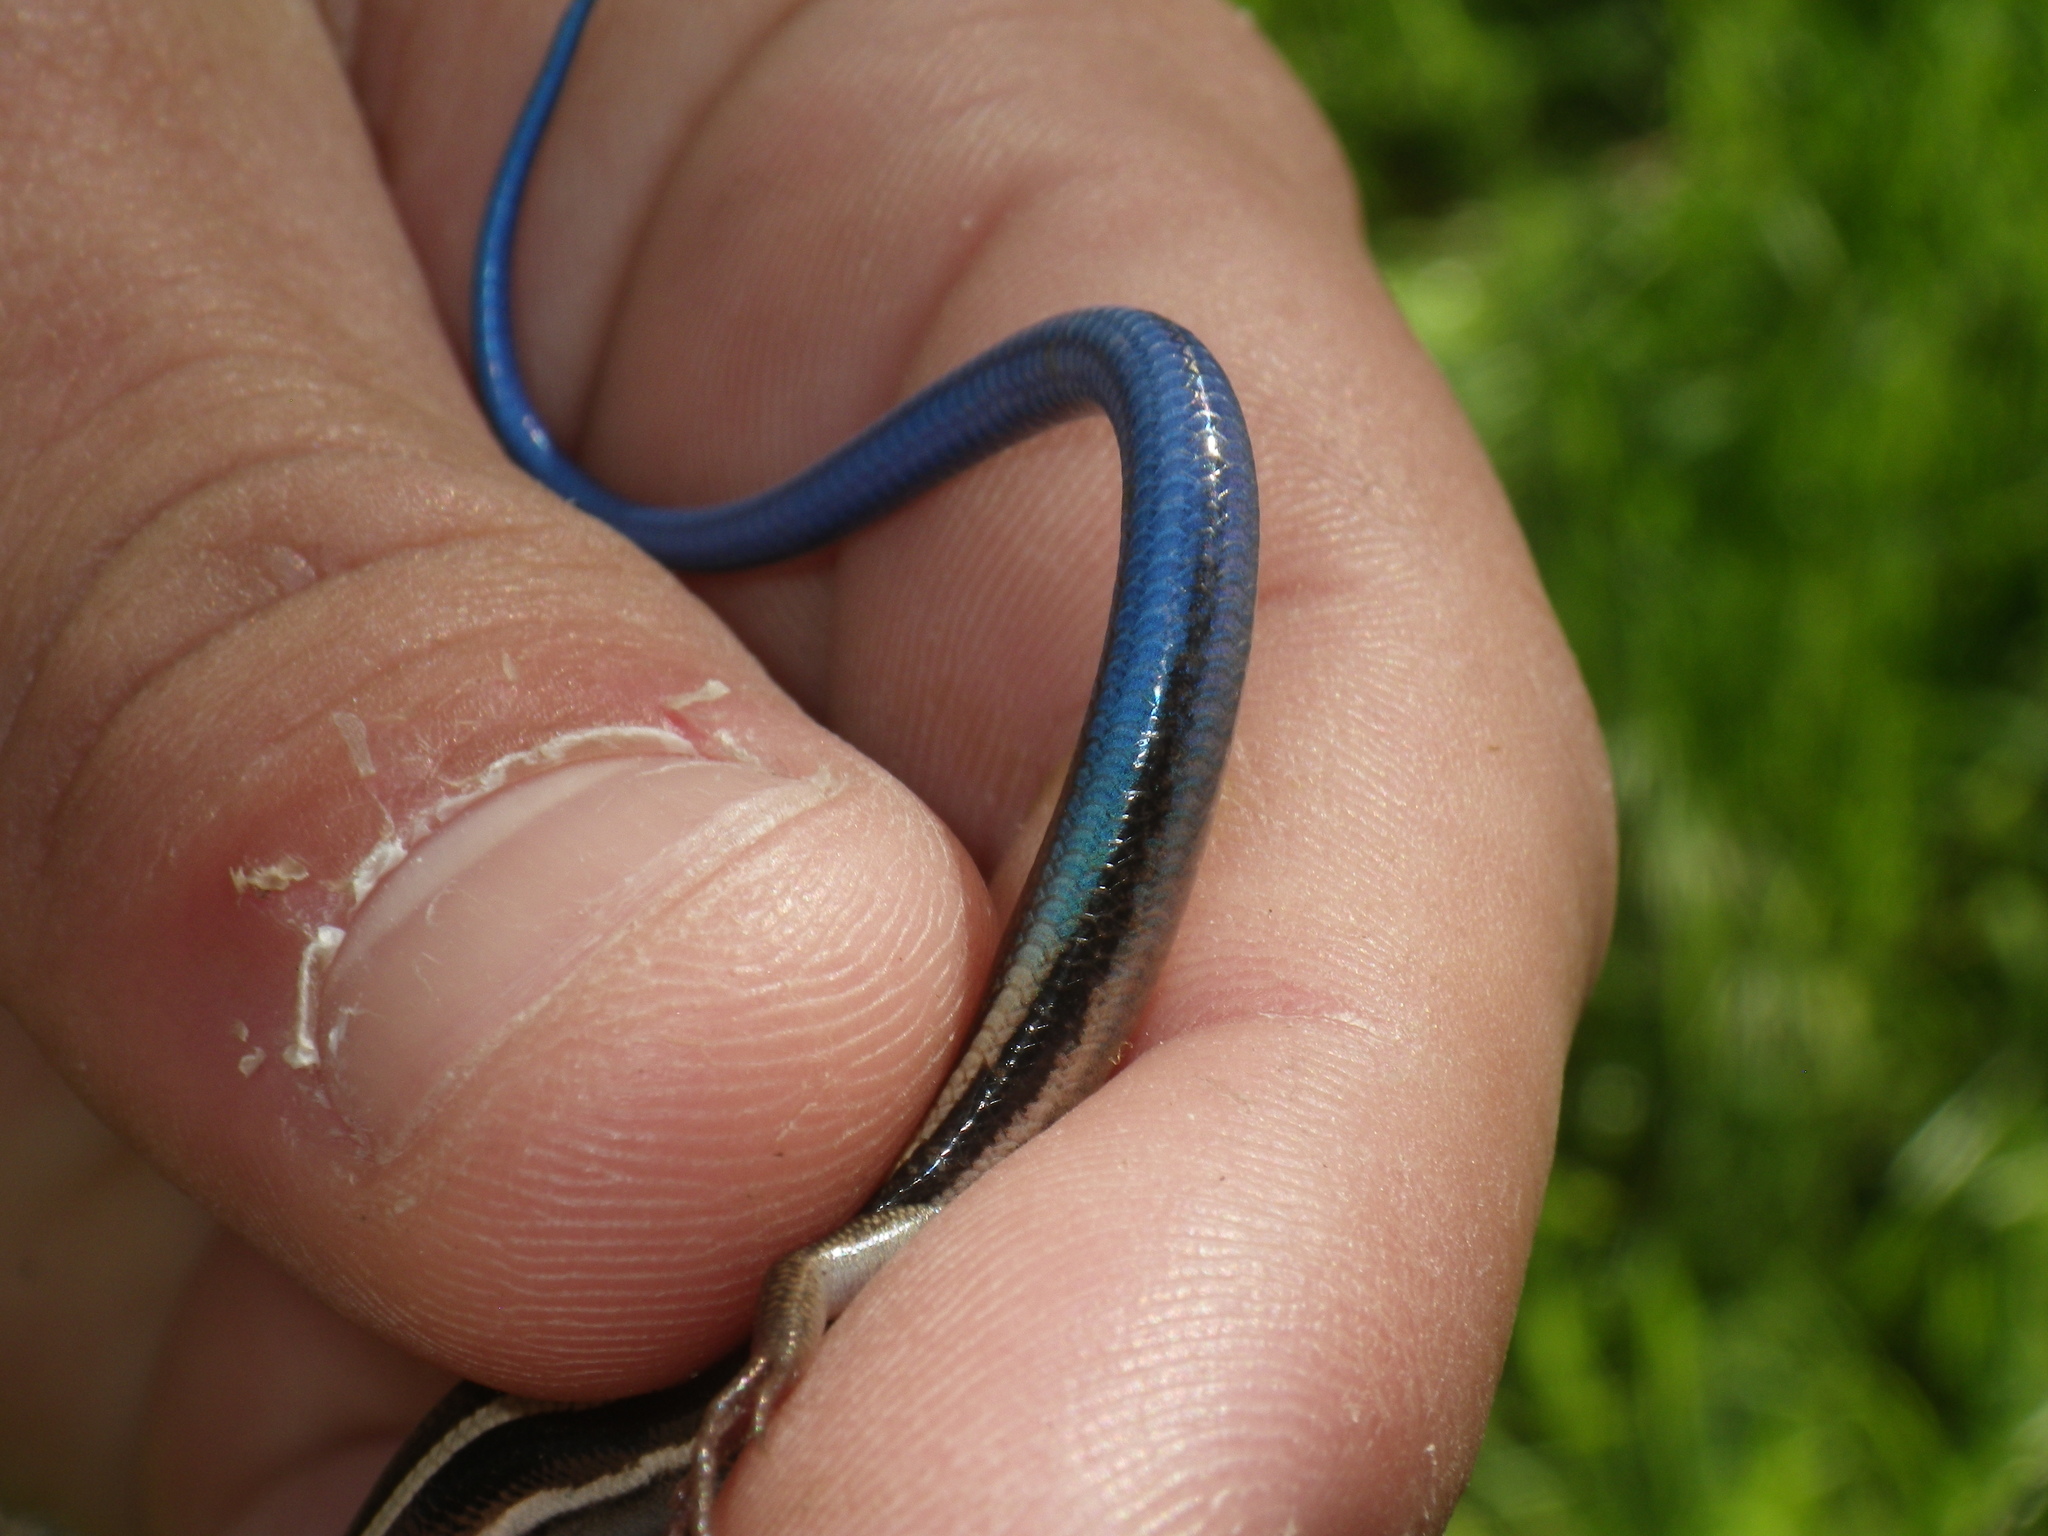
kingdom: Animalia
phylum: Chordata
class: Squamata
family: Scincidae
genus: Plestiodon
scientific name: Plestiodon skiltonianus
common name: Coronado island skink [interparietalis]
